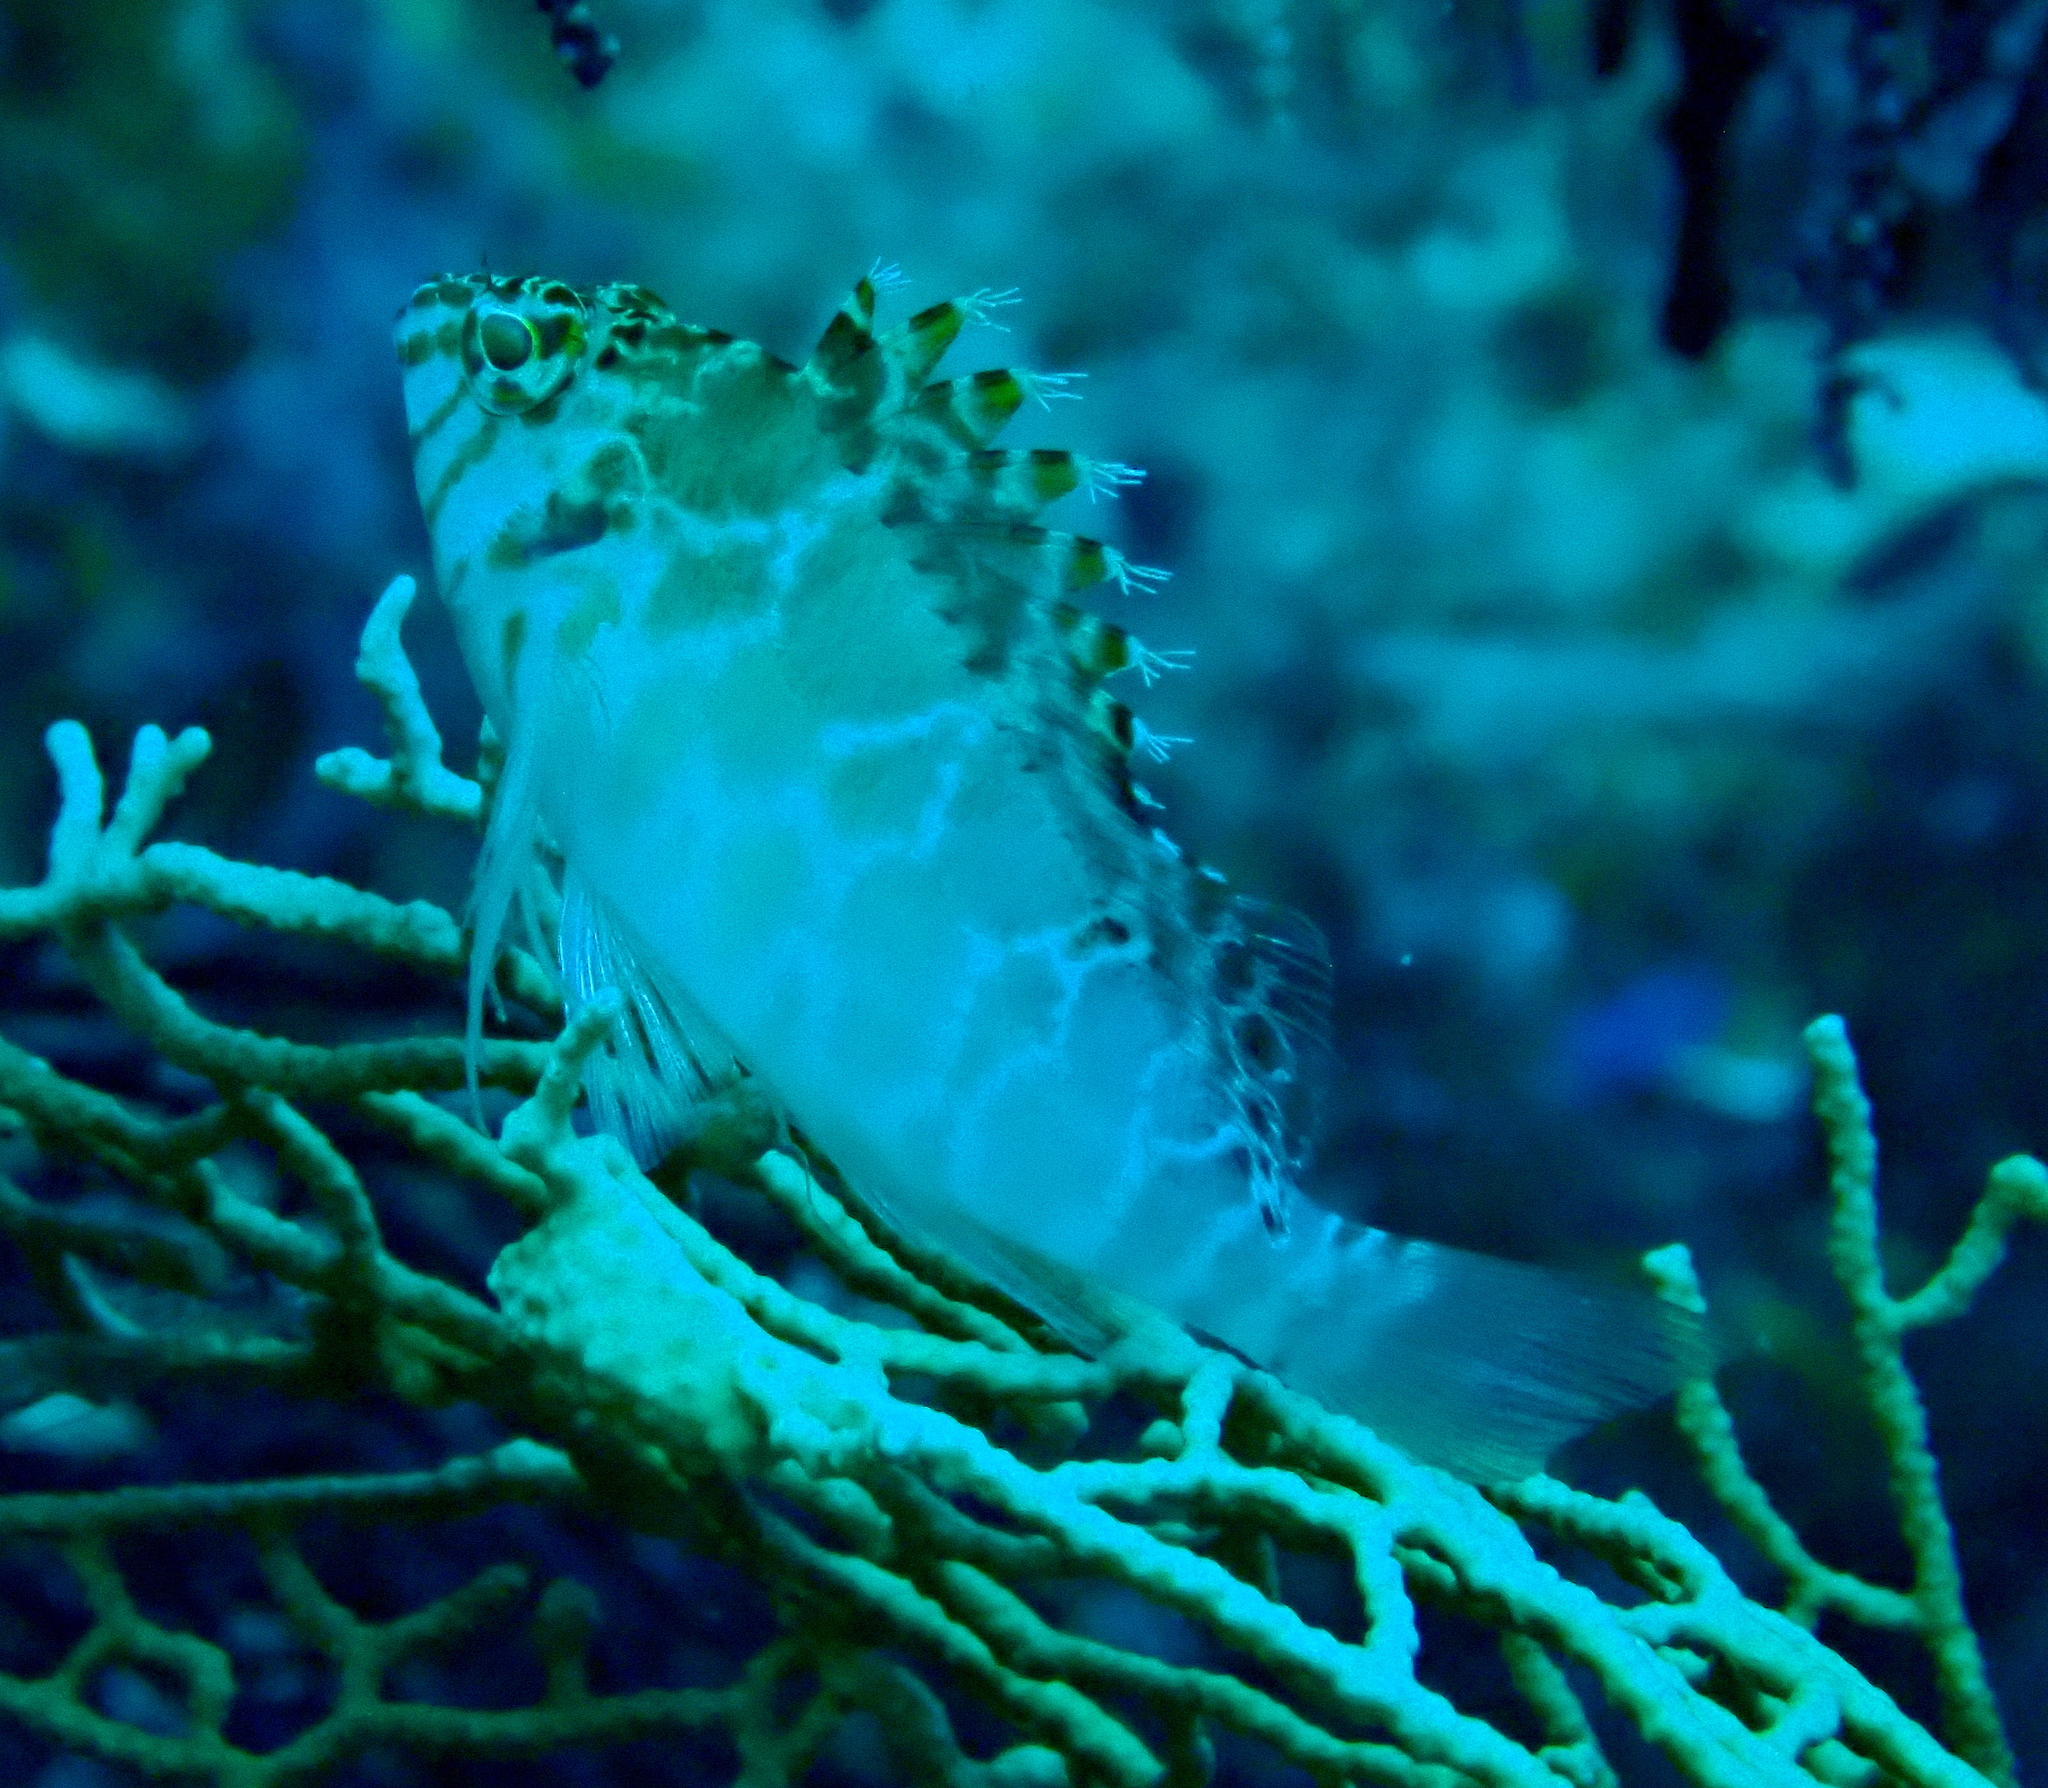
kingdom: Animalia
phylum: Chordata
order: Perciformes
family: Cirrhitidae
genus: Cirrhitichthys
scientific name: Cirrhitichthys aprinus
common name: Blotched hawkfish
